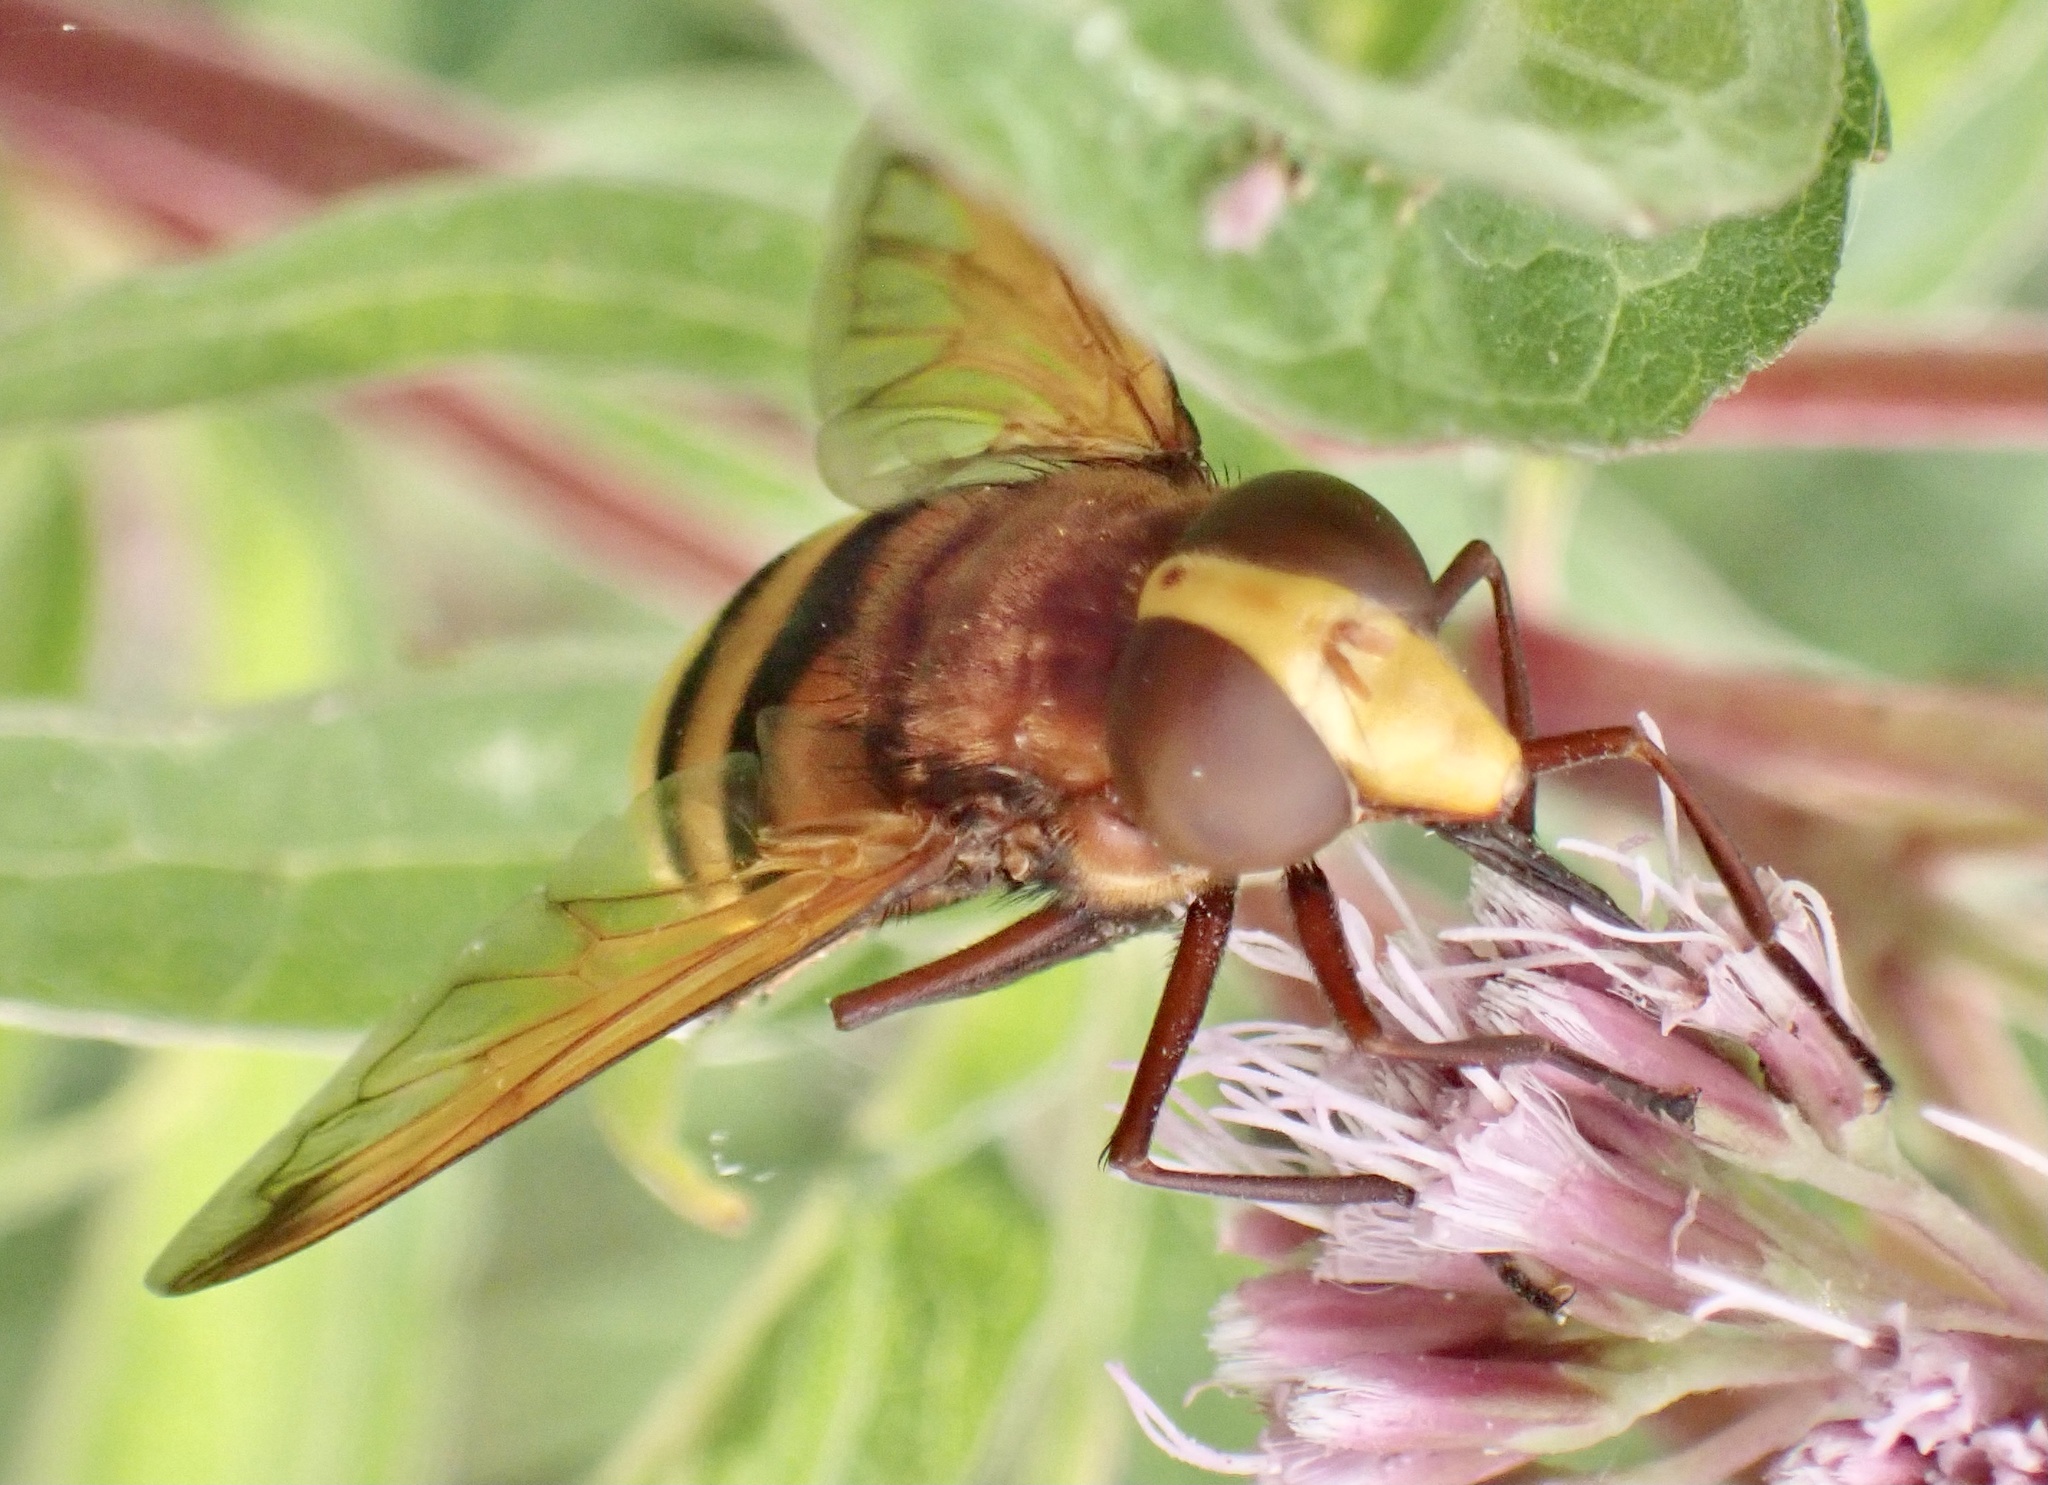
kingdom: Animalia
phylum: Arthropoda
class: Insecta
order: Diptera
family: Syrphidae
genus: Volucella
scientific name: Volucella zonaria
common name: Hornet hoverfly
